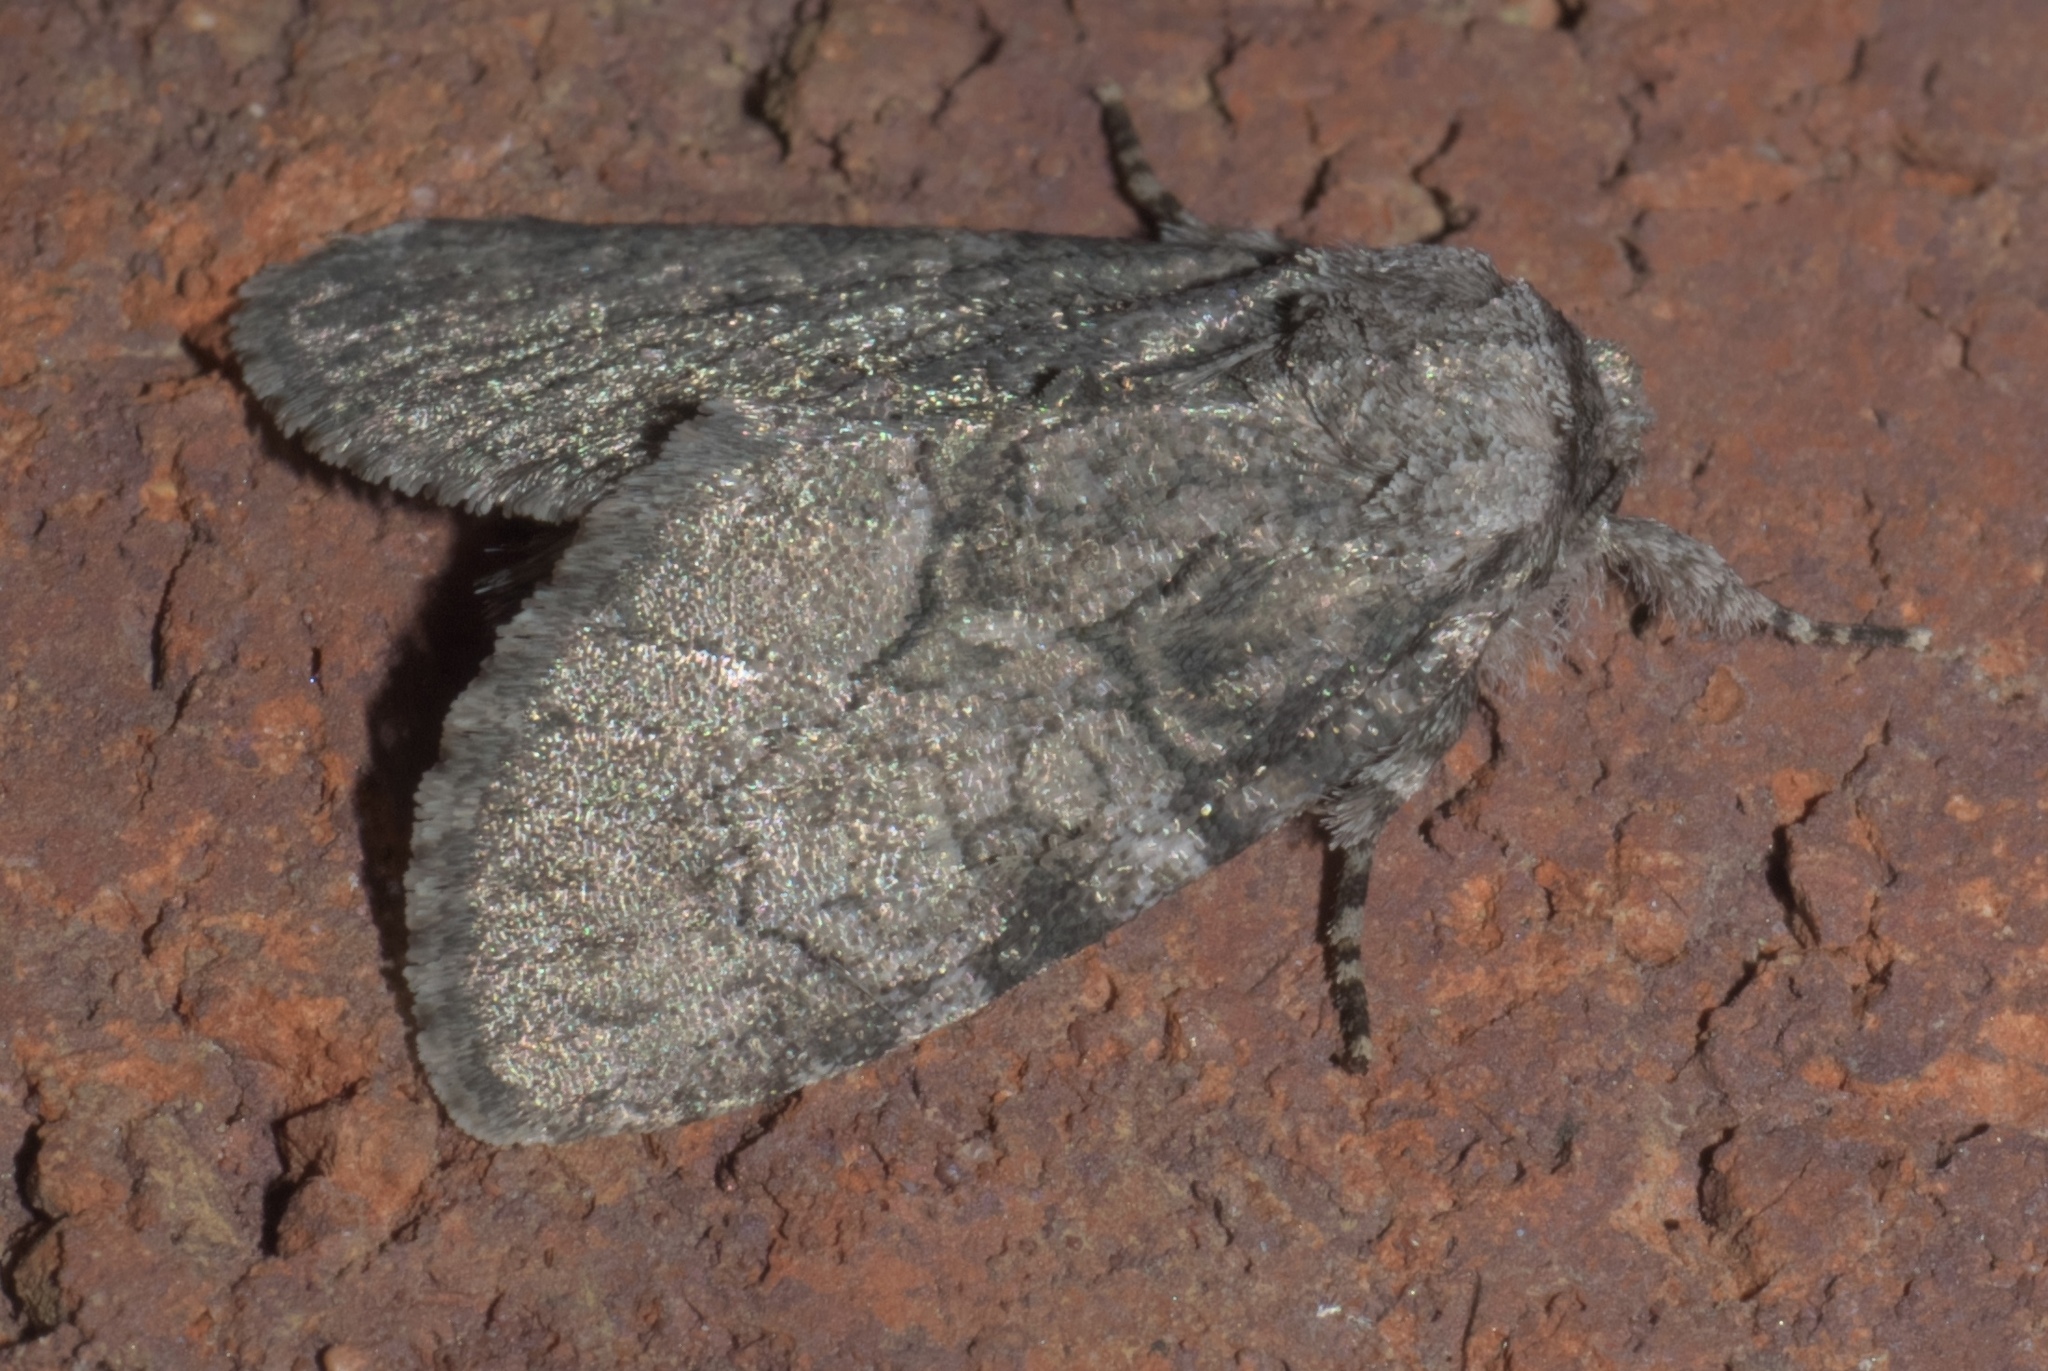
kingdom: Animalia
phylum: Arthropoda
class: Insecta
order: Lepidoptera
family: Noctuidae
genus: Raphia
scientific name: Raphia frater
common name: Brother
